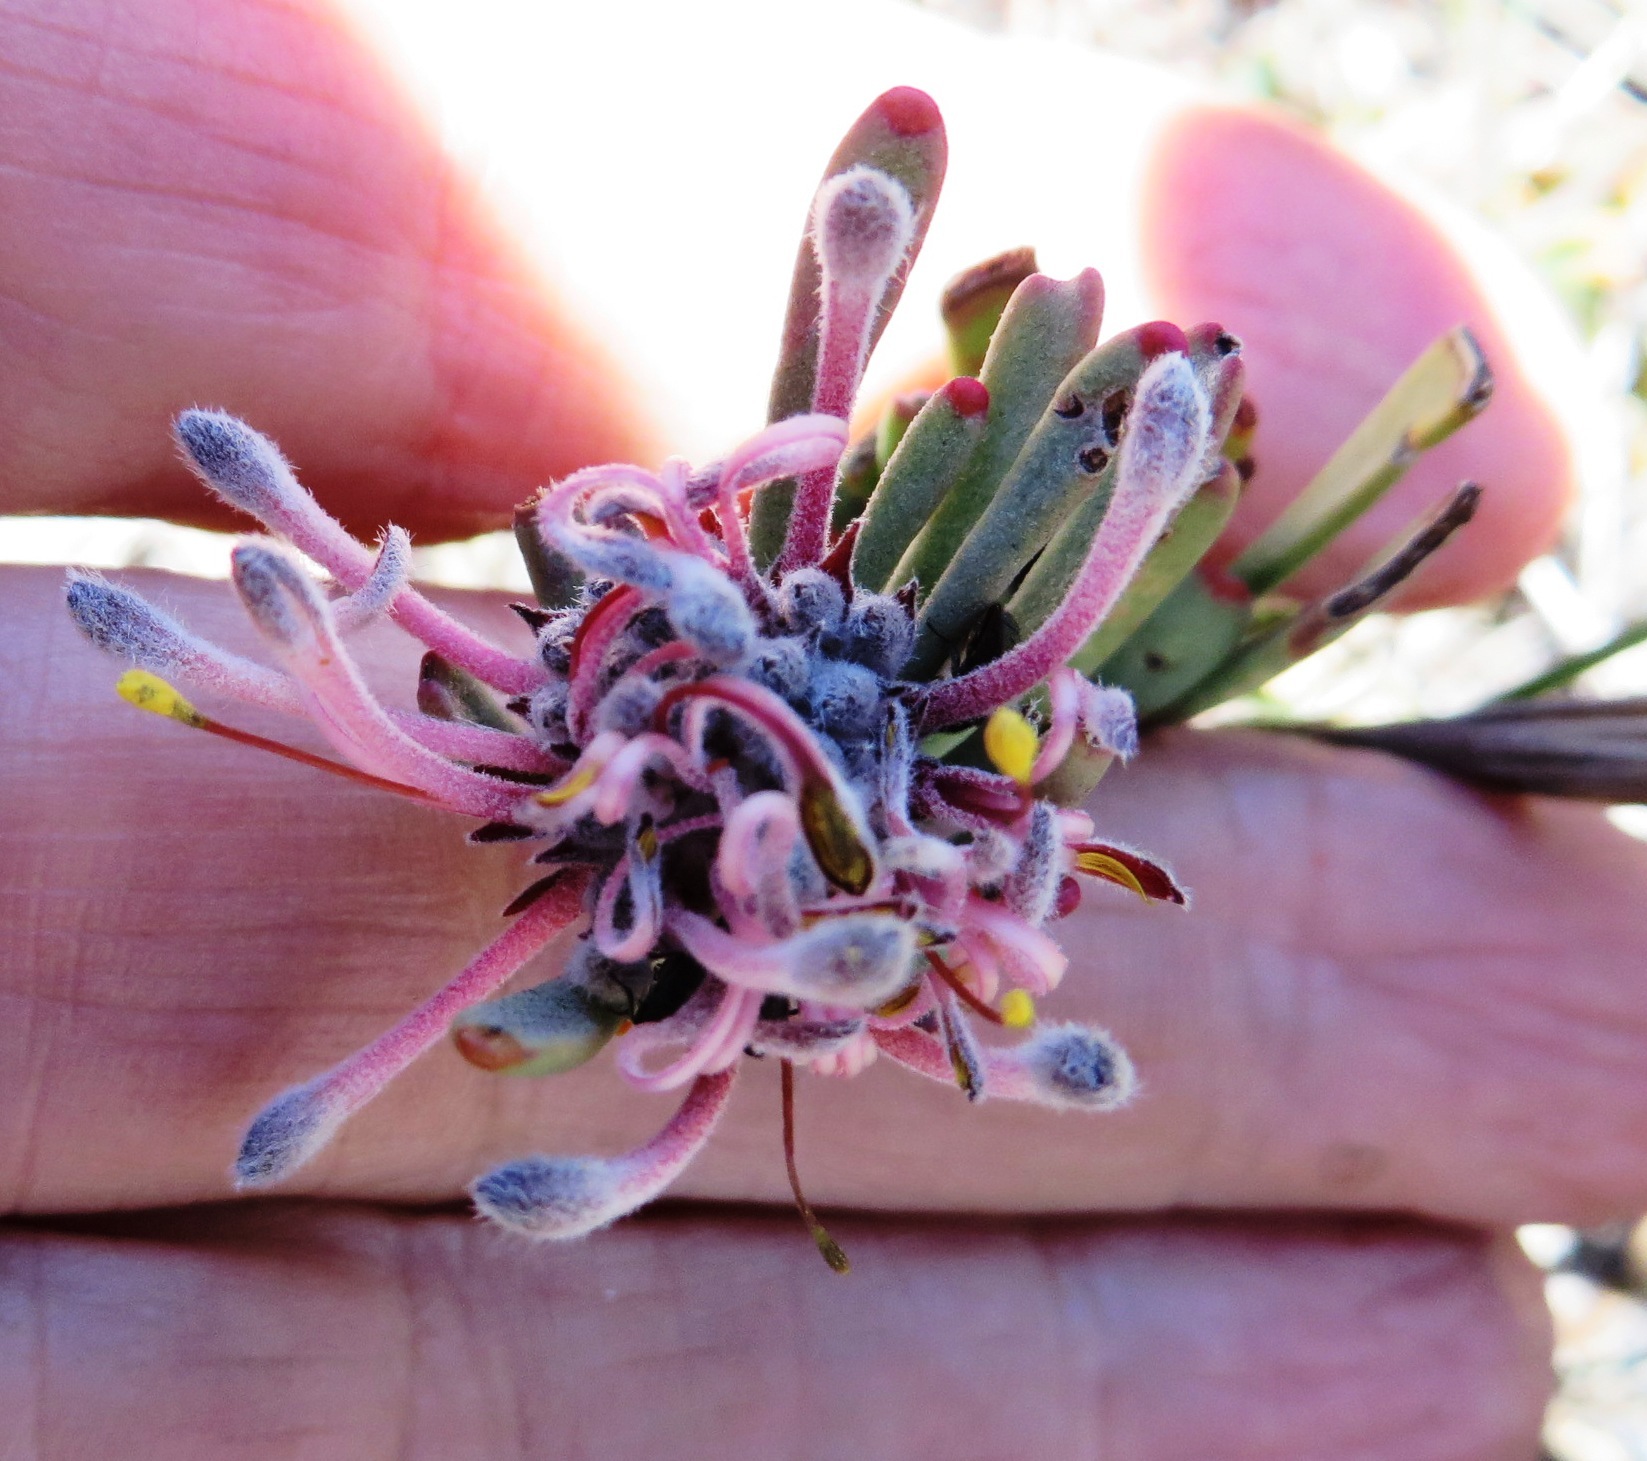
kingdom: Plantae
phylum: Tracheophyta
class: Magnoliopsida
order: Proteales
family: Proteaceae
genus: Vexatorella
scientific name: Vexatorella obtusata
